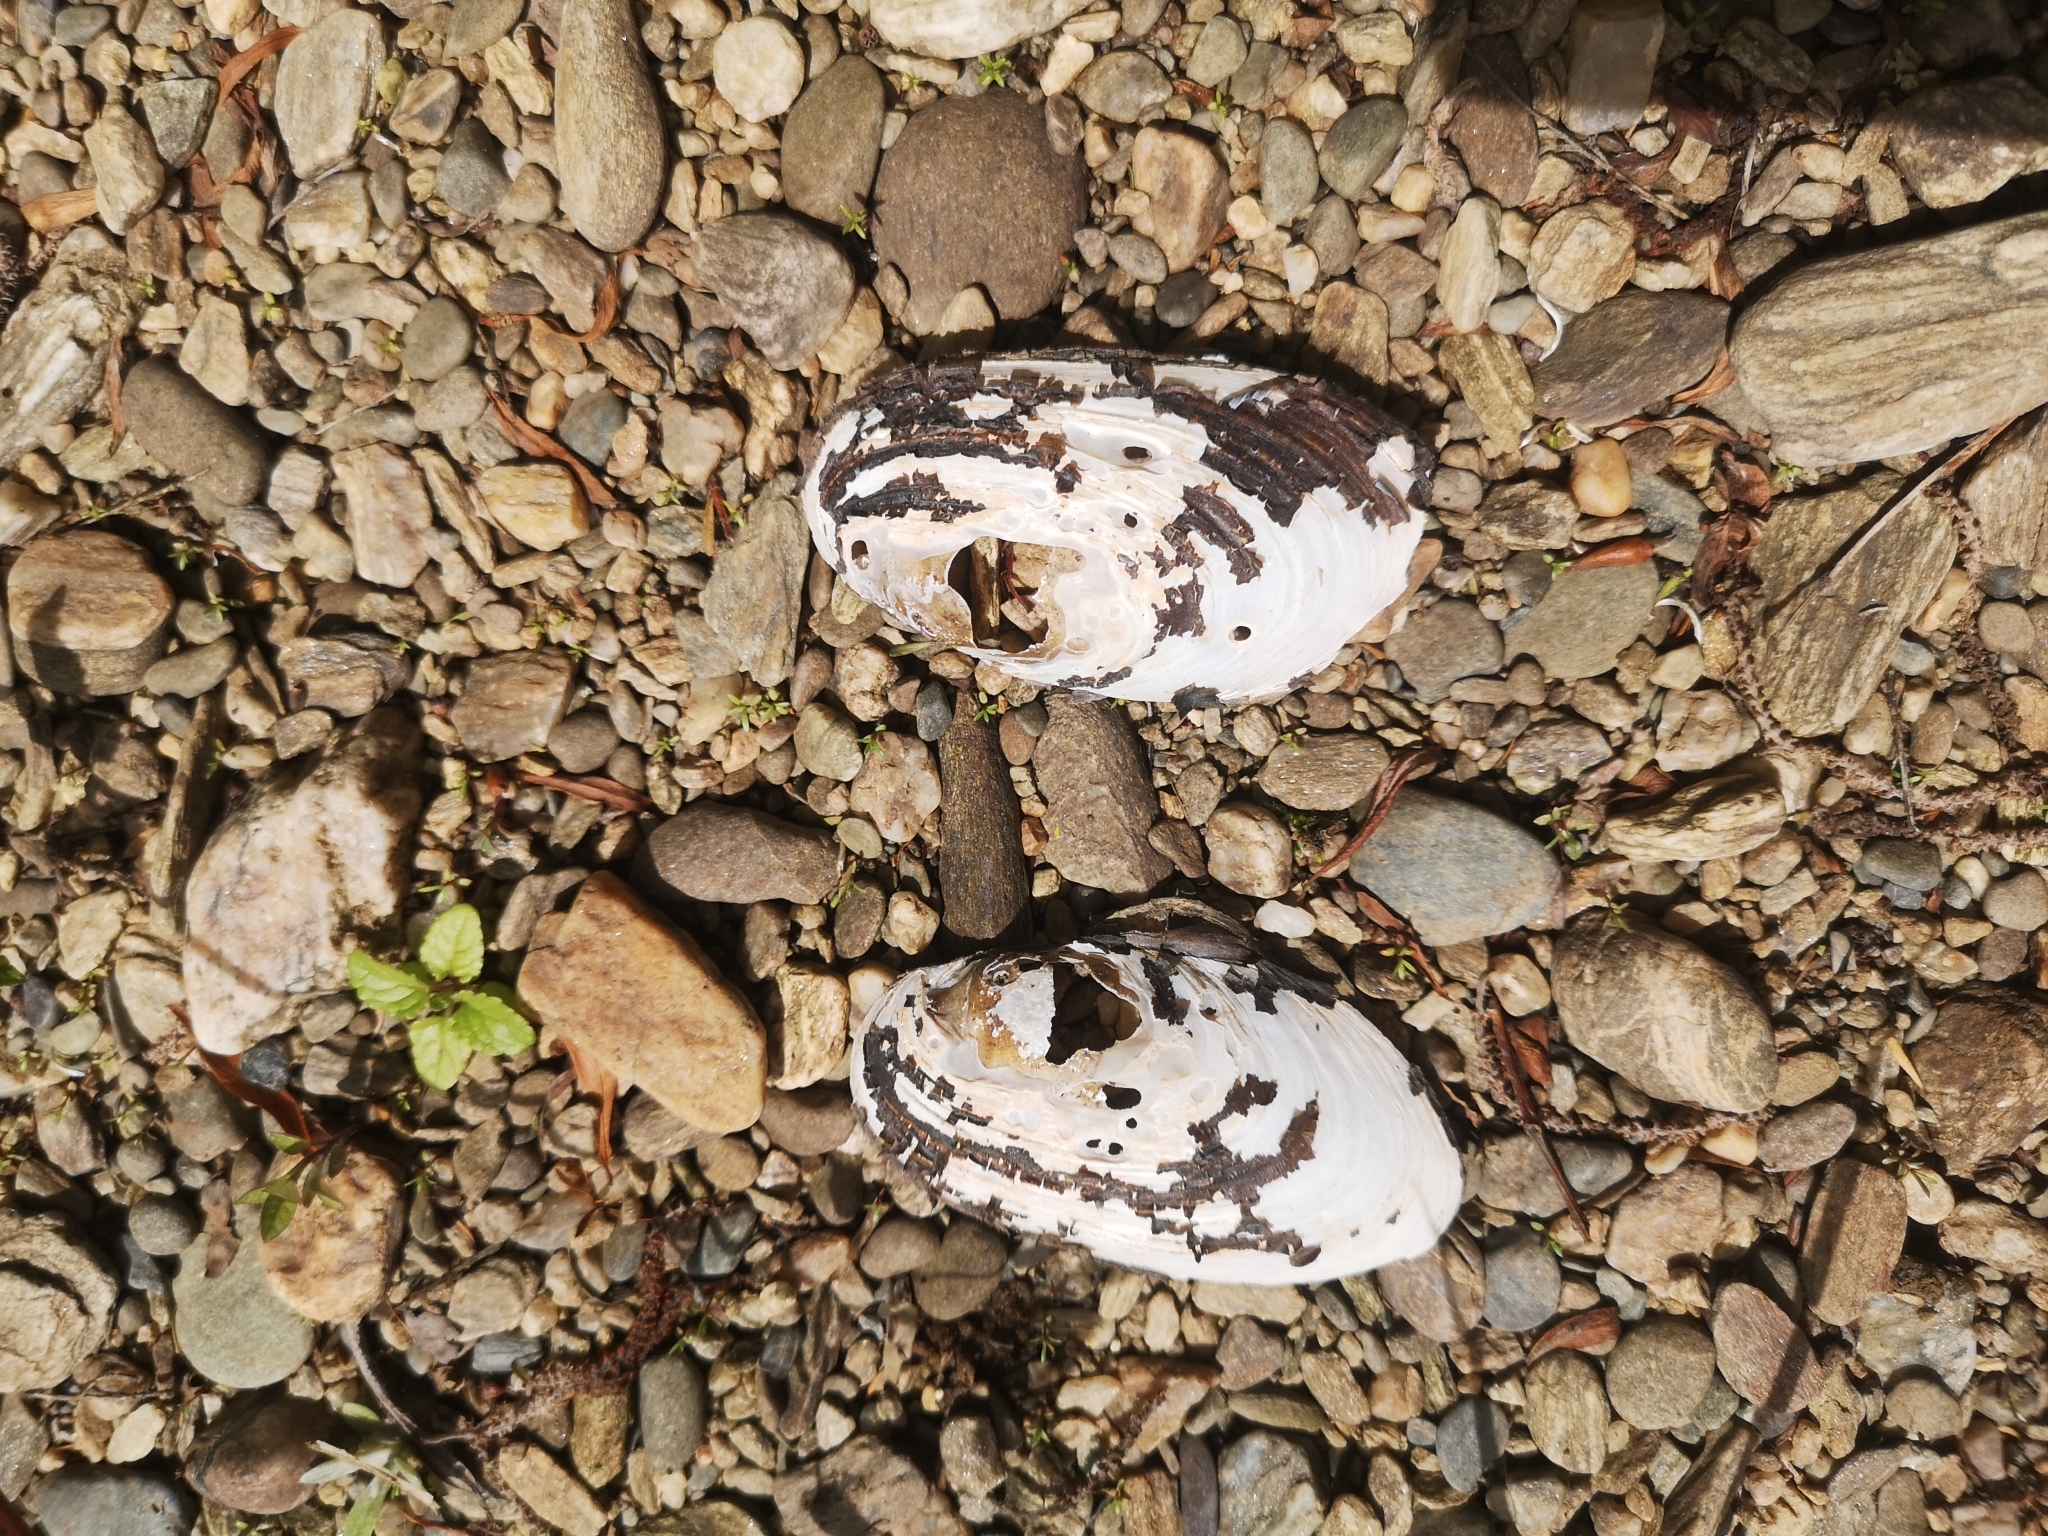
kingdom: Animalia
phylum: Mollusca
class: Bivalvia
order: Unionida
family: Hyriidae
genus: Echyridella
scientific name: Echyridella menziesii
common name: New zealand freshwater mussel
